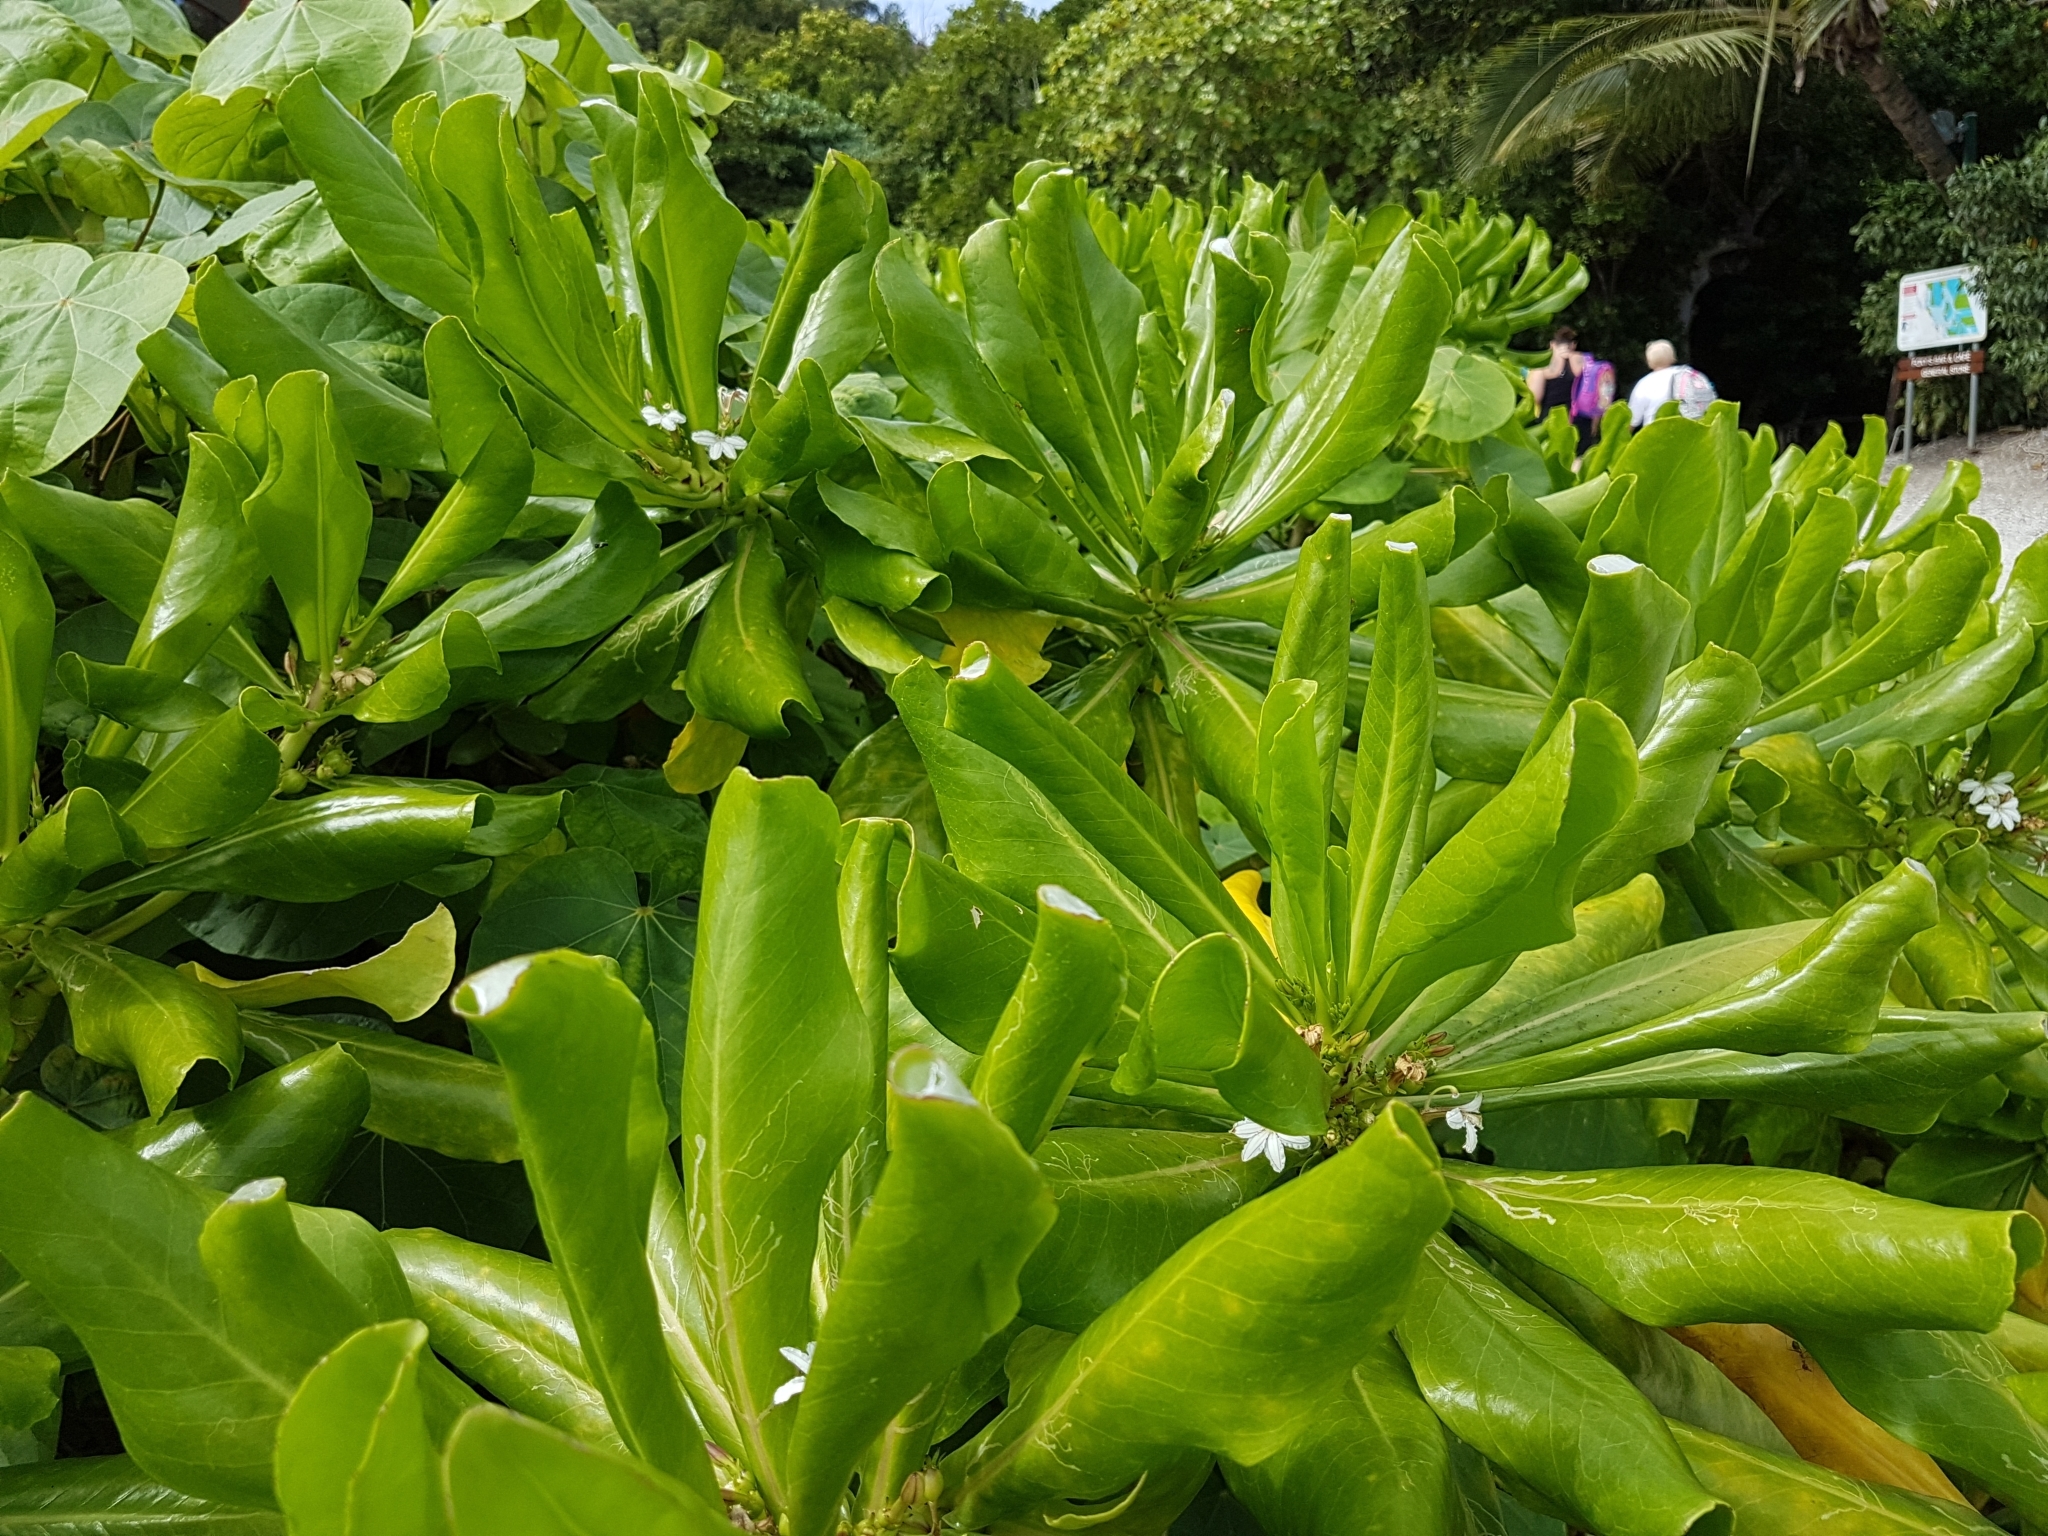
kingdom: Animalia
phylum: Arthropoda
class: Insecta
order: Hymenoptera
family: Formicidae
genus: Oecophylla
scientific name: Oecophylla smaragdina
